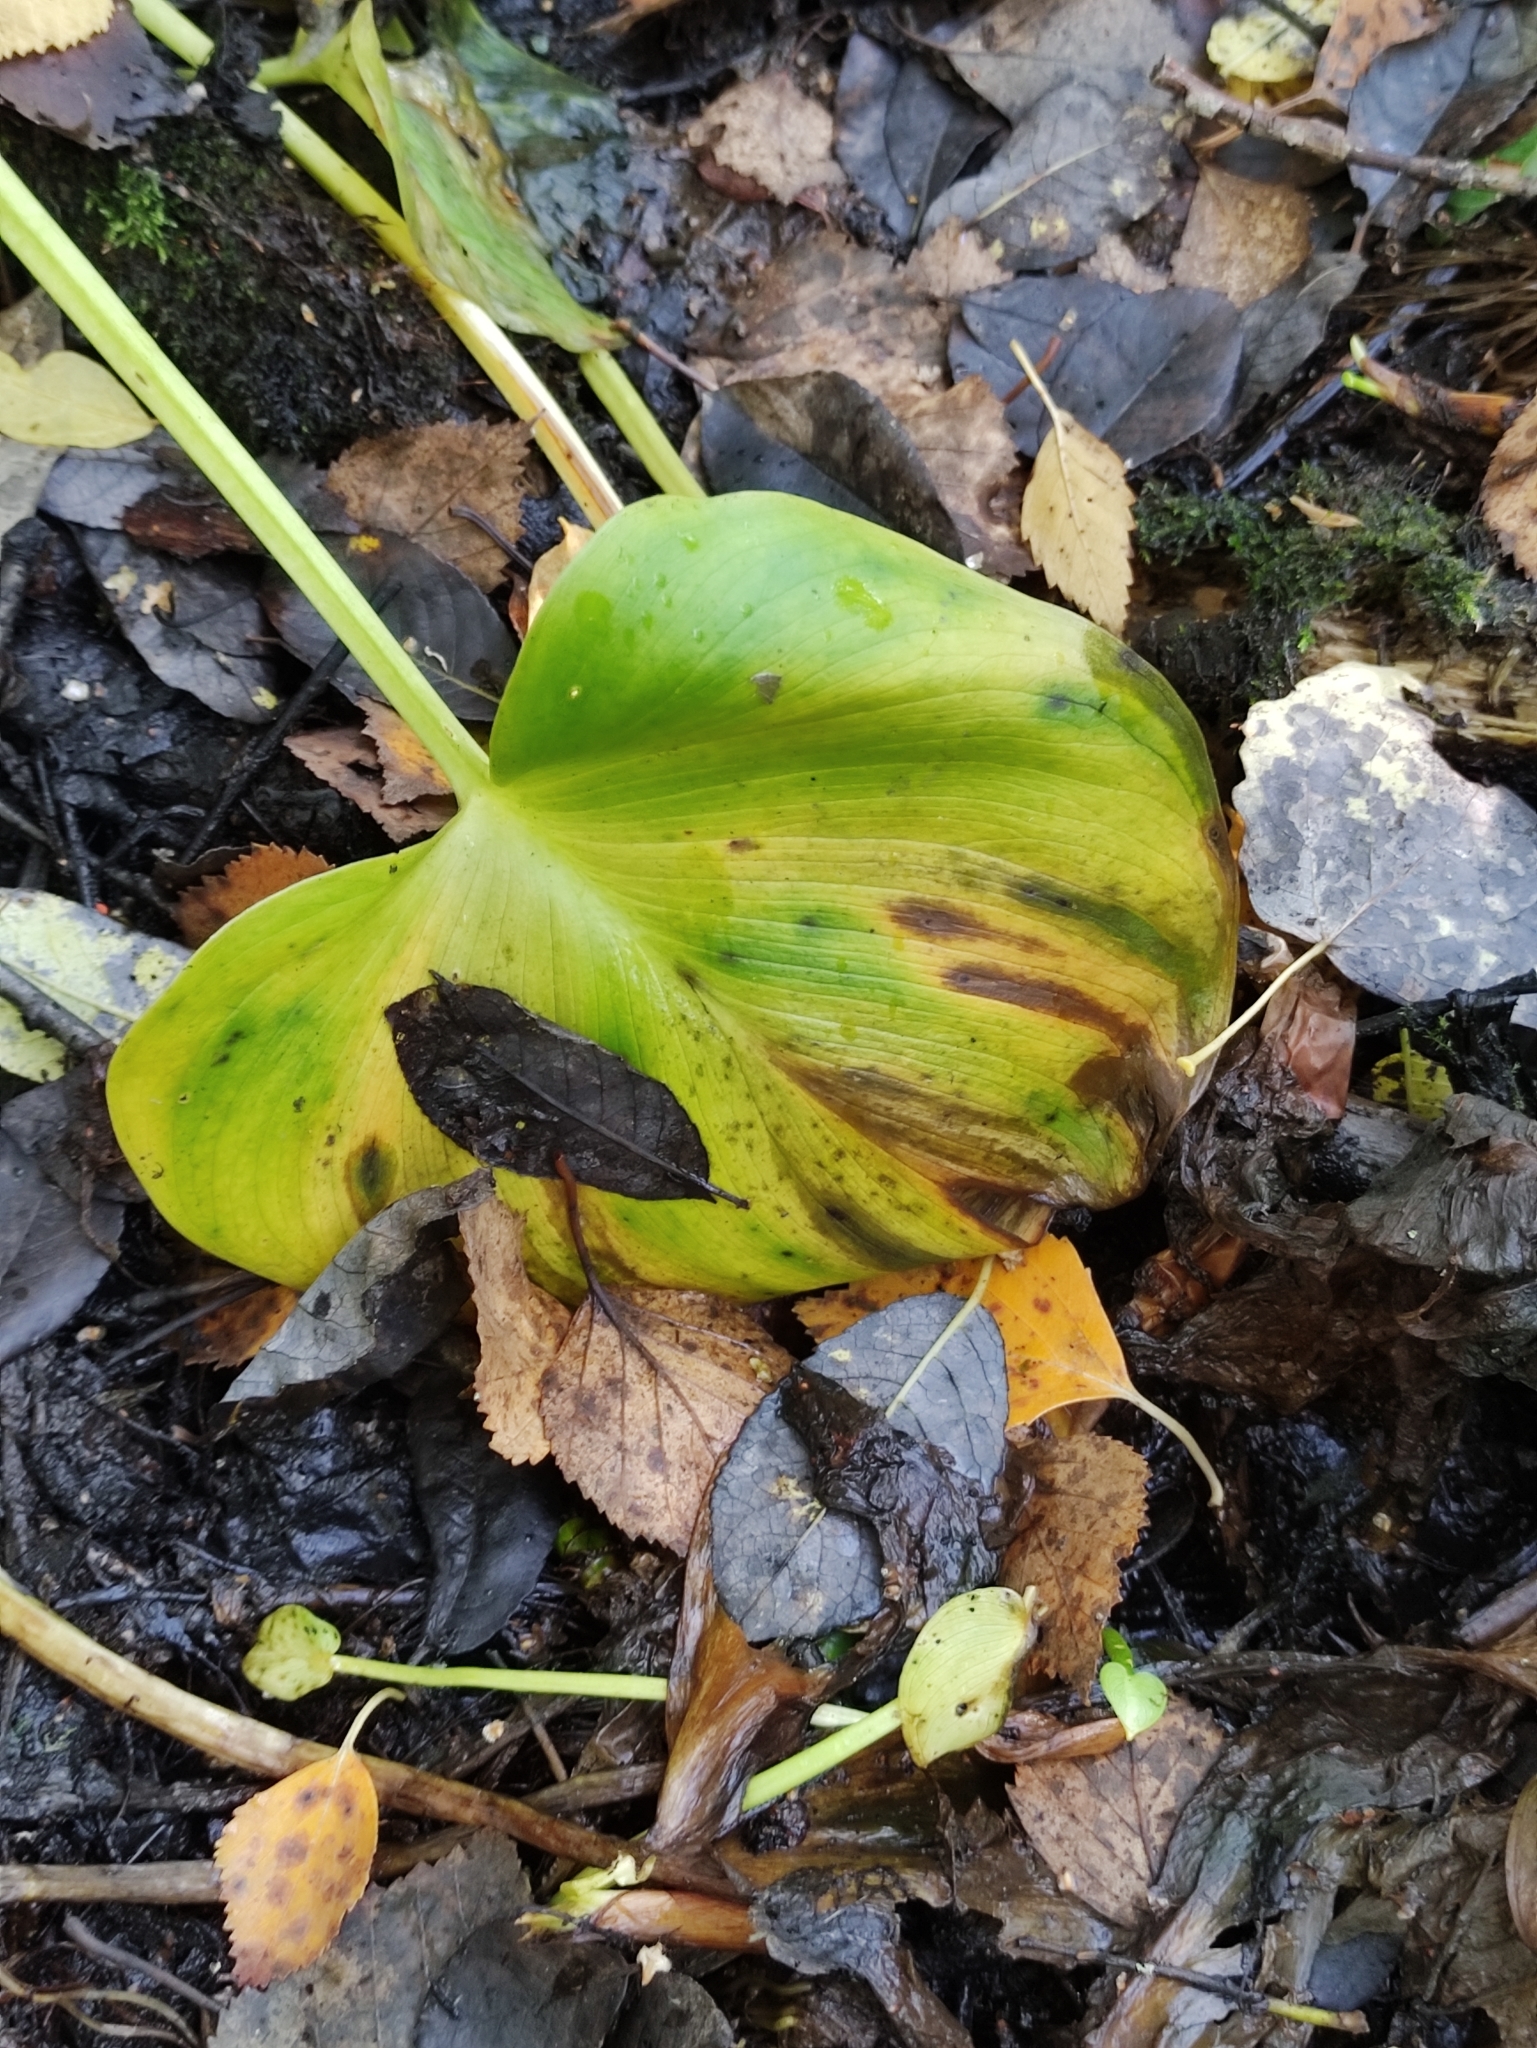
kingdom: Plantae
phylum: Tracheophyta
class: Liliopsida
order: Alismatales
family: Araceae
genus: Calla
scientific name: Calla palustris
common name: Bog arum
